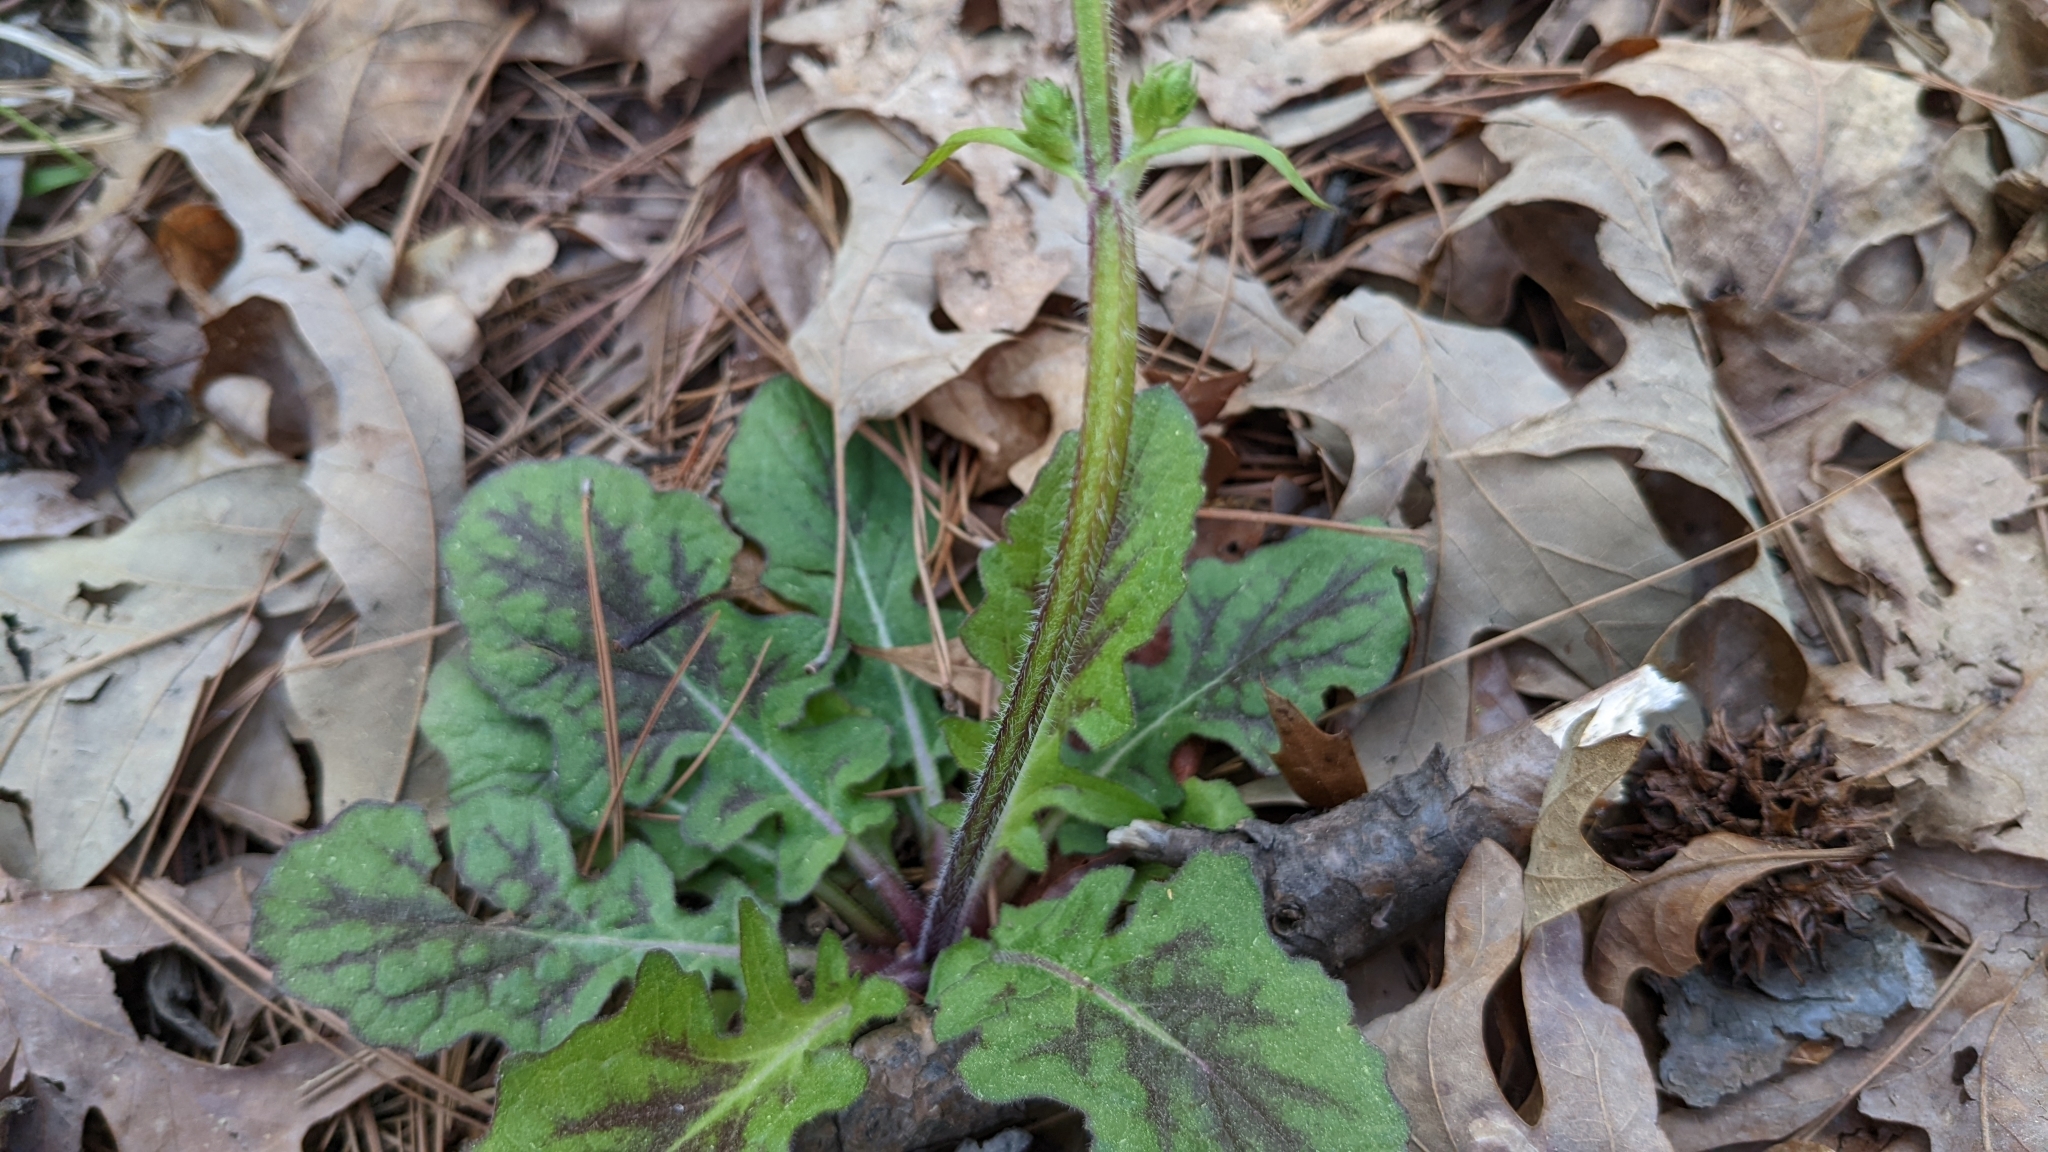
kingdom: Plantae
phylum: Tracheophyta
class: Magnoliopsida
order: Lamiales
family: Lamiaceae
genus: Salvia
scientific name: Salvia lyrata
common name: Cancerweed
